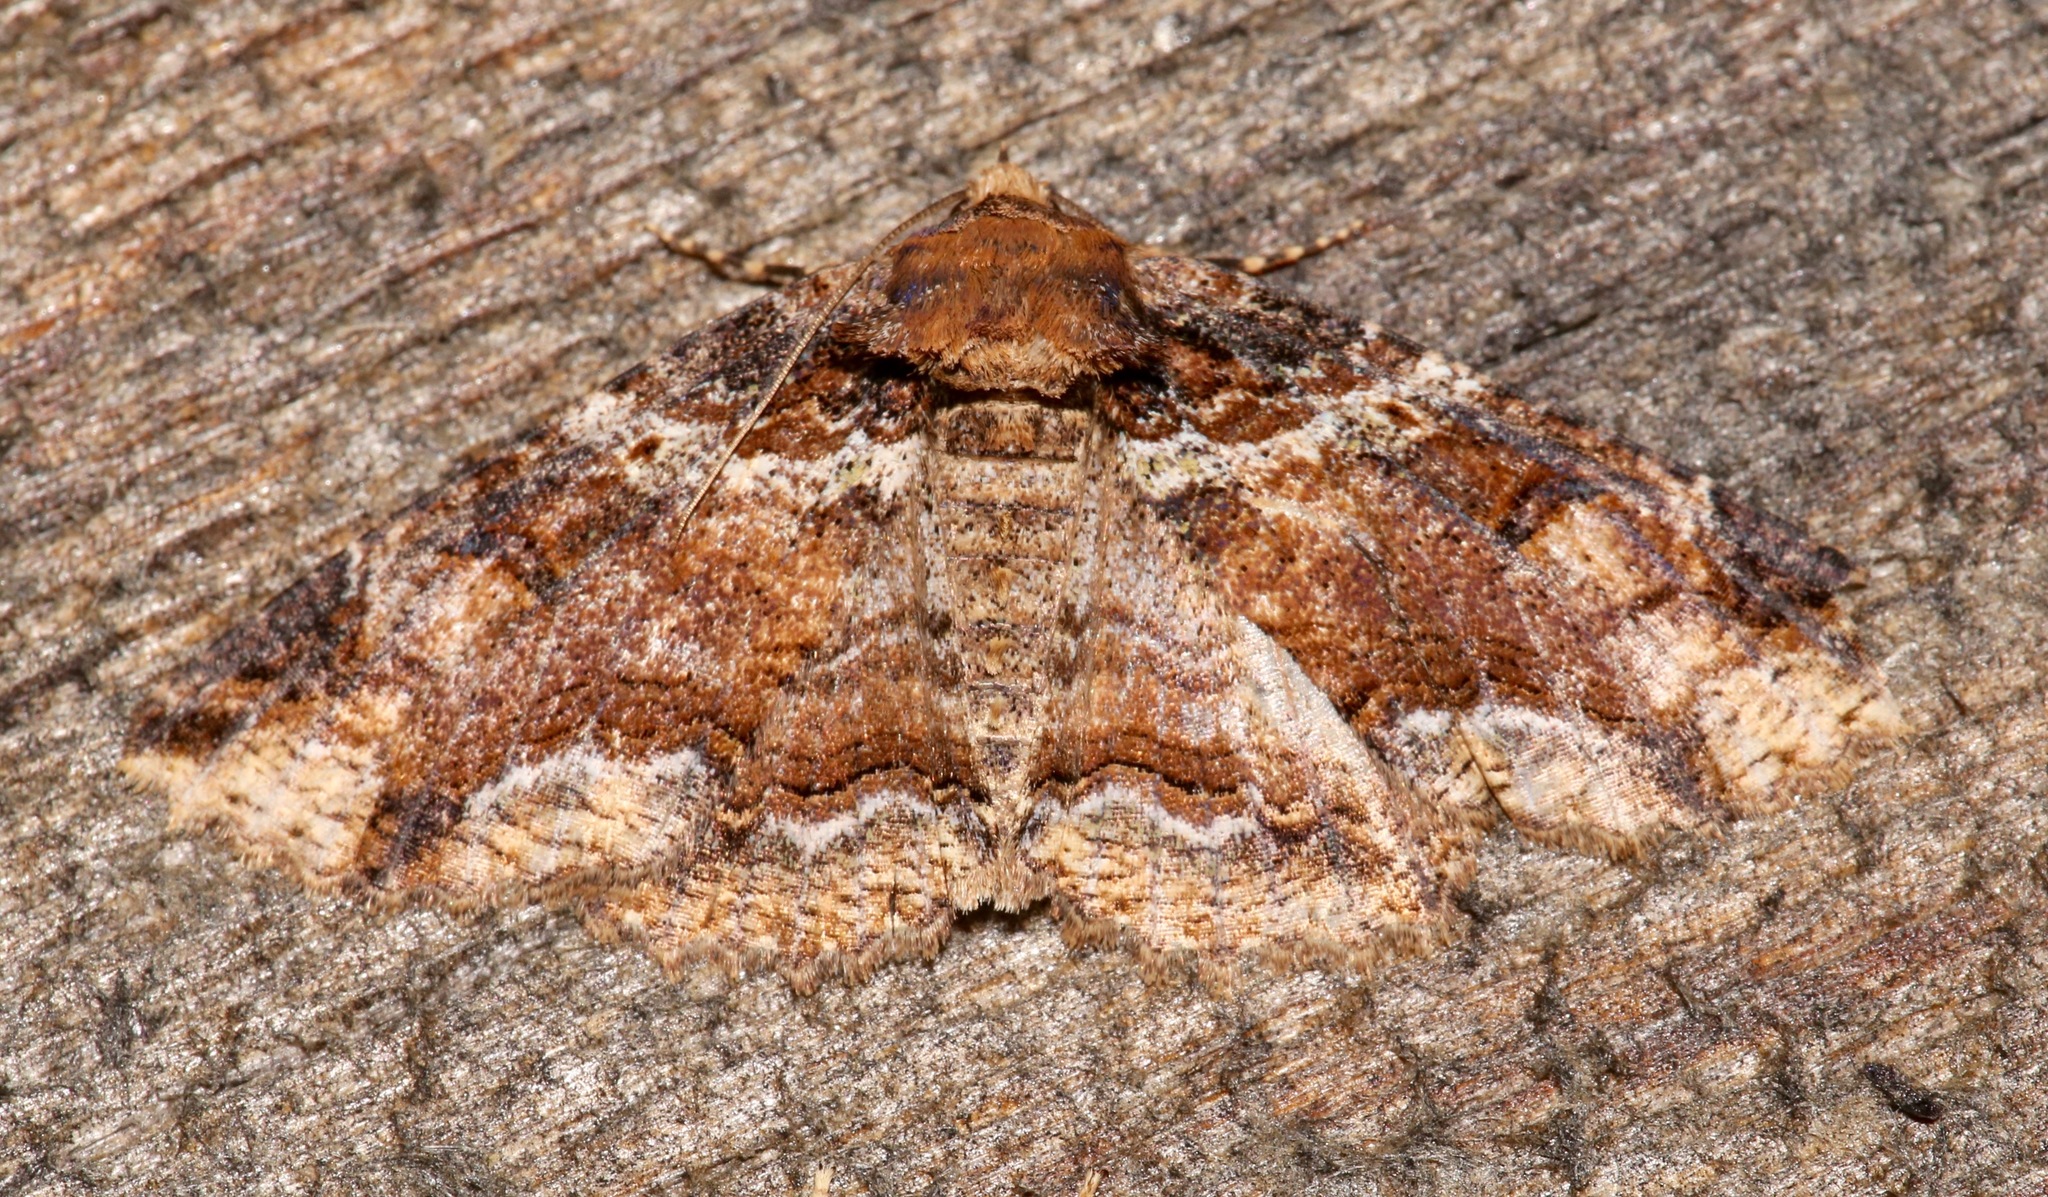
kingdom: Animalia
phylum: Arthropoda
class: Insecta
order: Lepidoptera
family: Erebidae
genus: Zale
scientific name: Zale minerea
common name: Colorful zale moth
